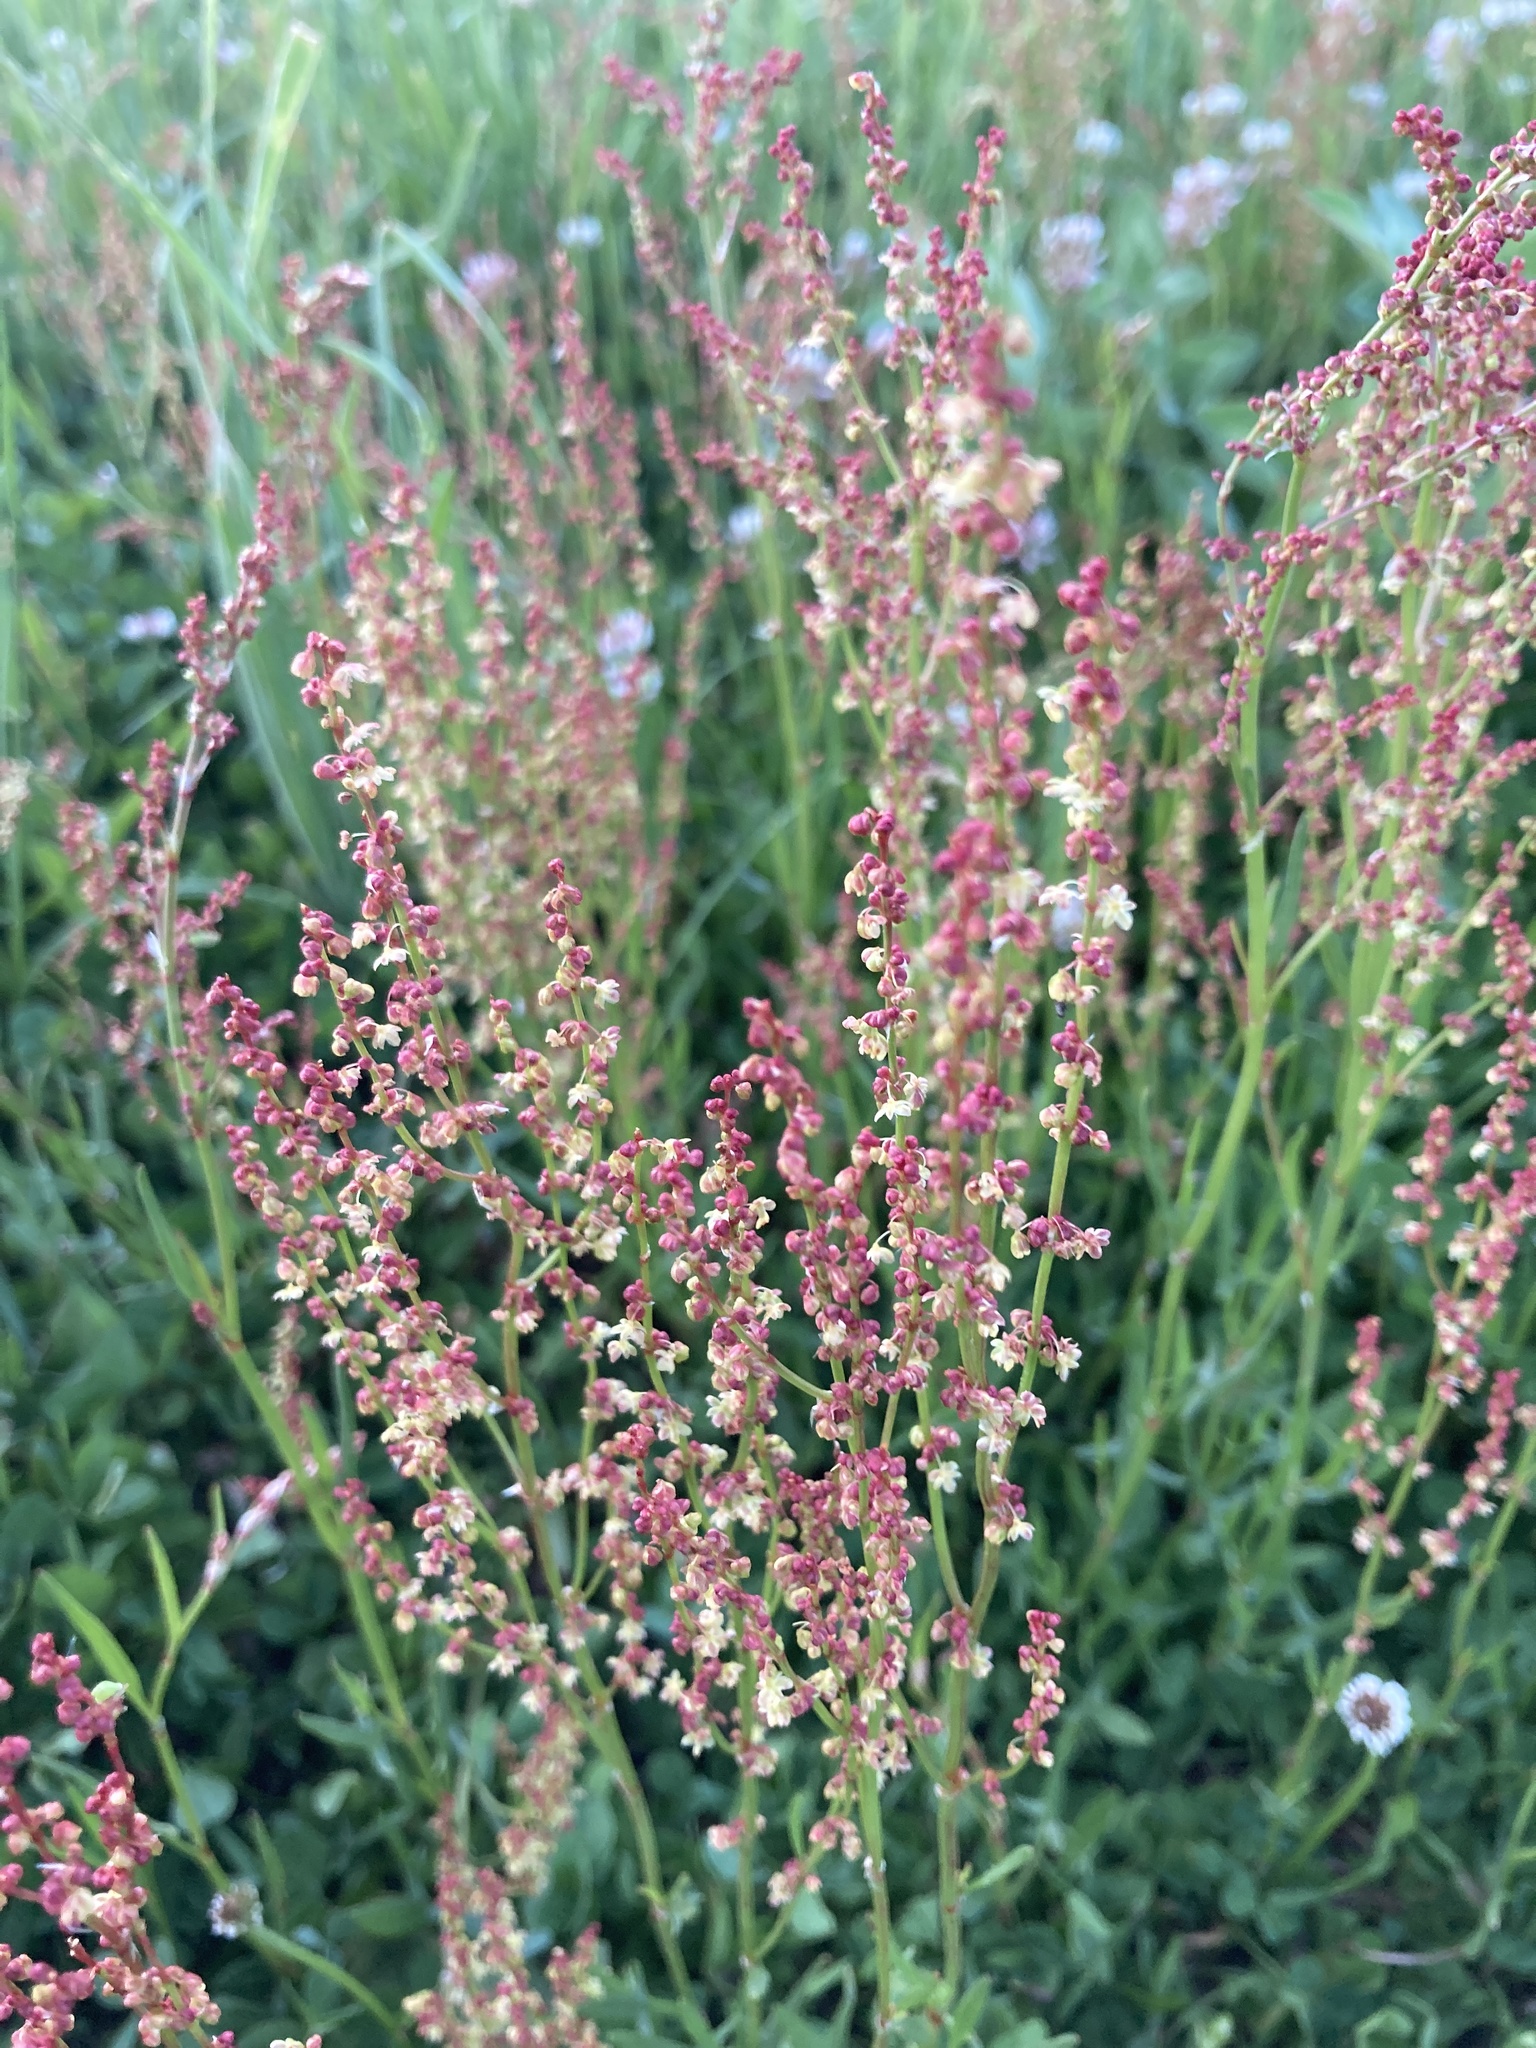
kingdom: Plantae
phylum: Tracheophyta
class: Magnoliopsida
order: Caryophyllales
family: Polygonaceae
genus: Rumex
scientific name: Rumex acetosella
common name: Common sheep sorrel
